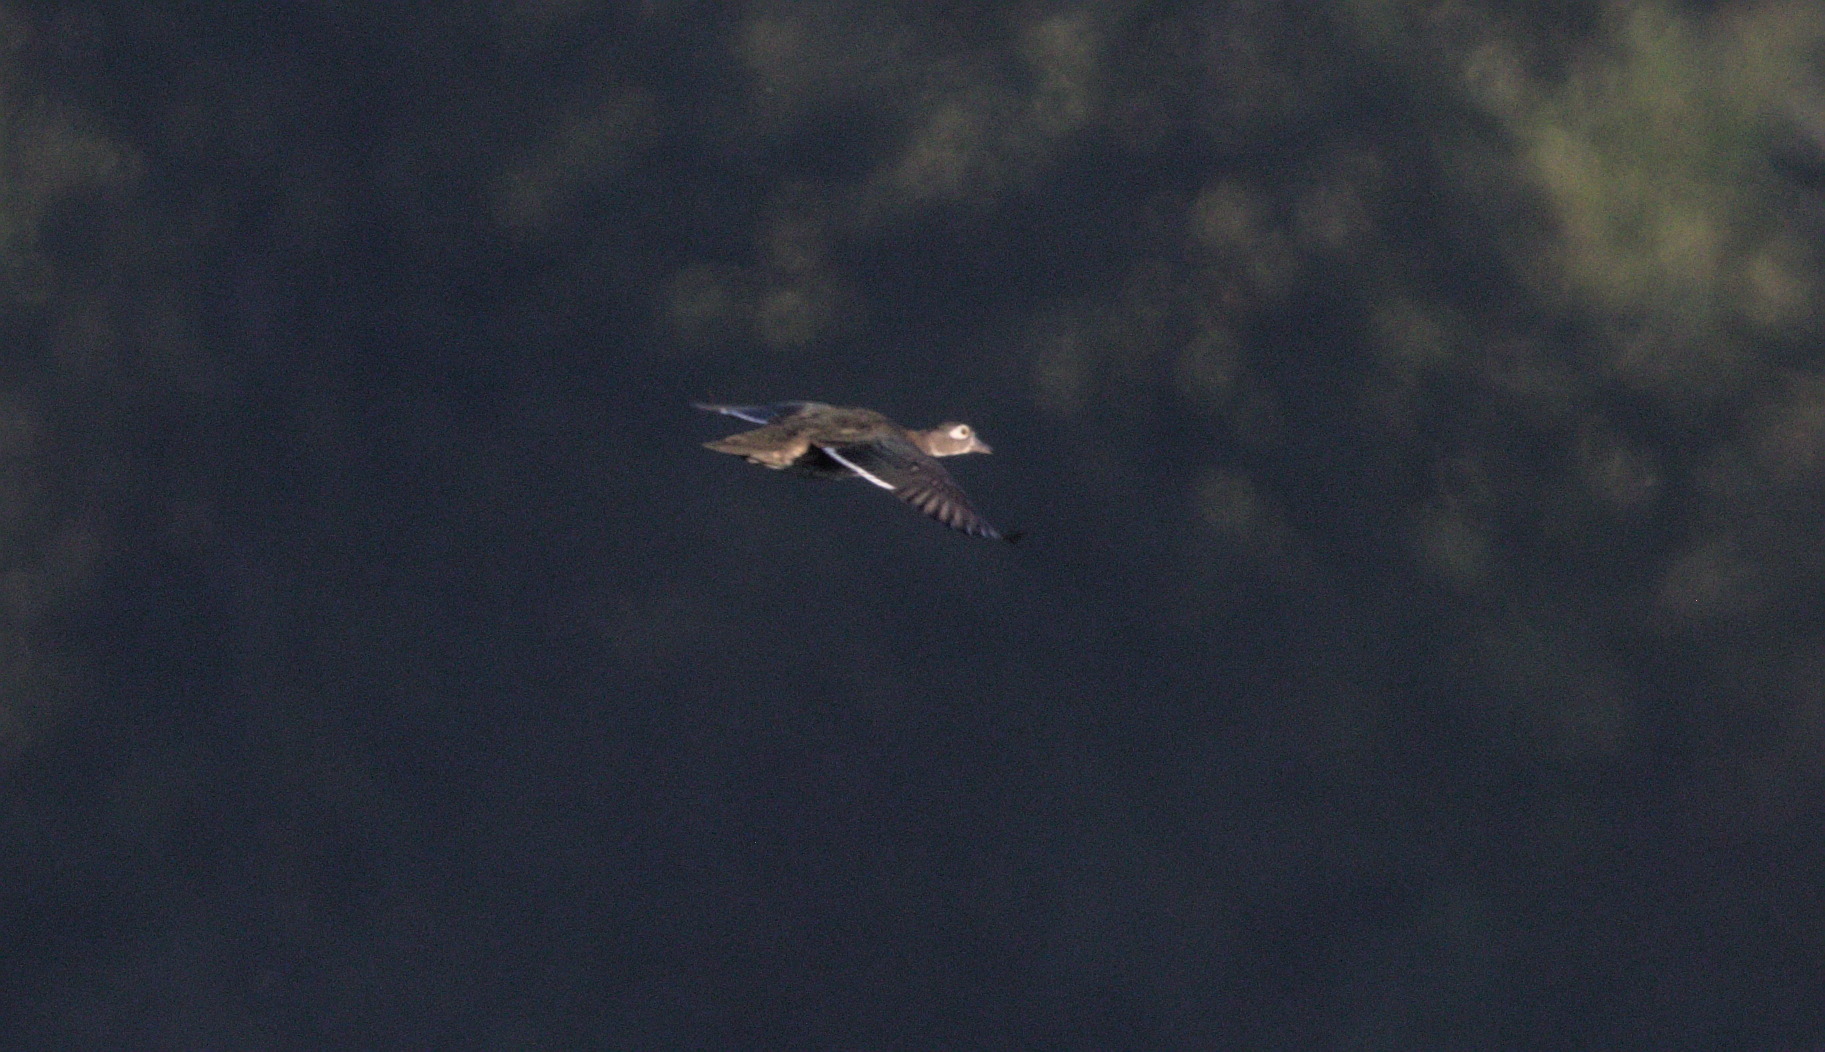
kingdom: Animalia
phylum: Chordata
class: Aves
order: Anseriformes
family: Anatidae
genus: Aix
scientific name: Aix sponsa
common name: Wood duck
